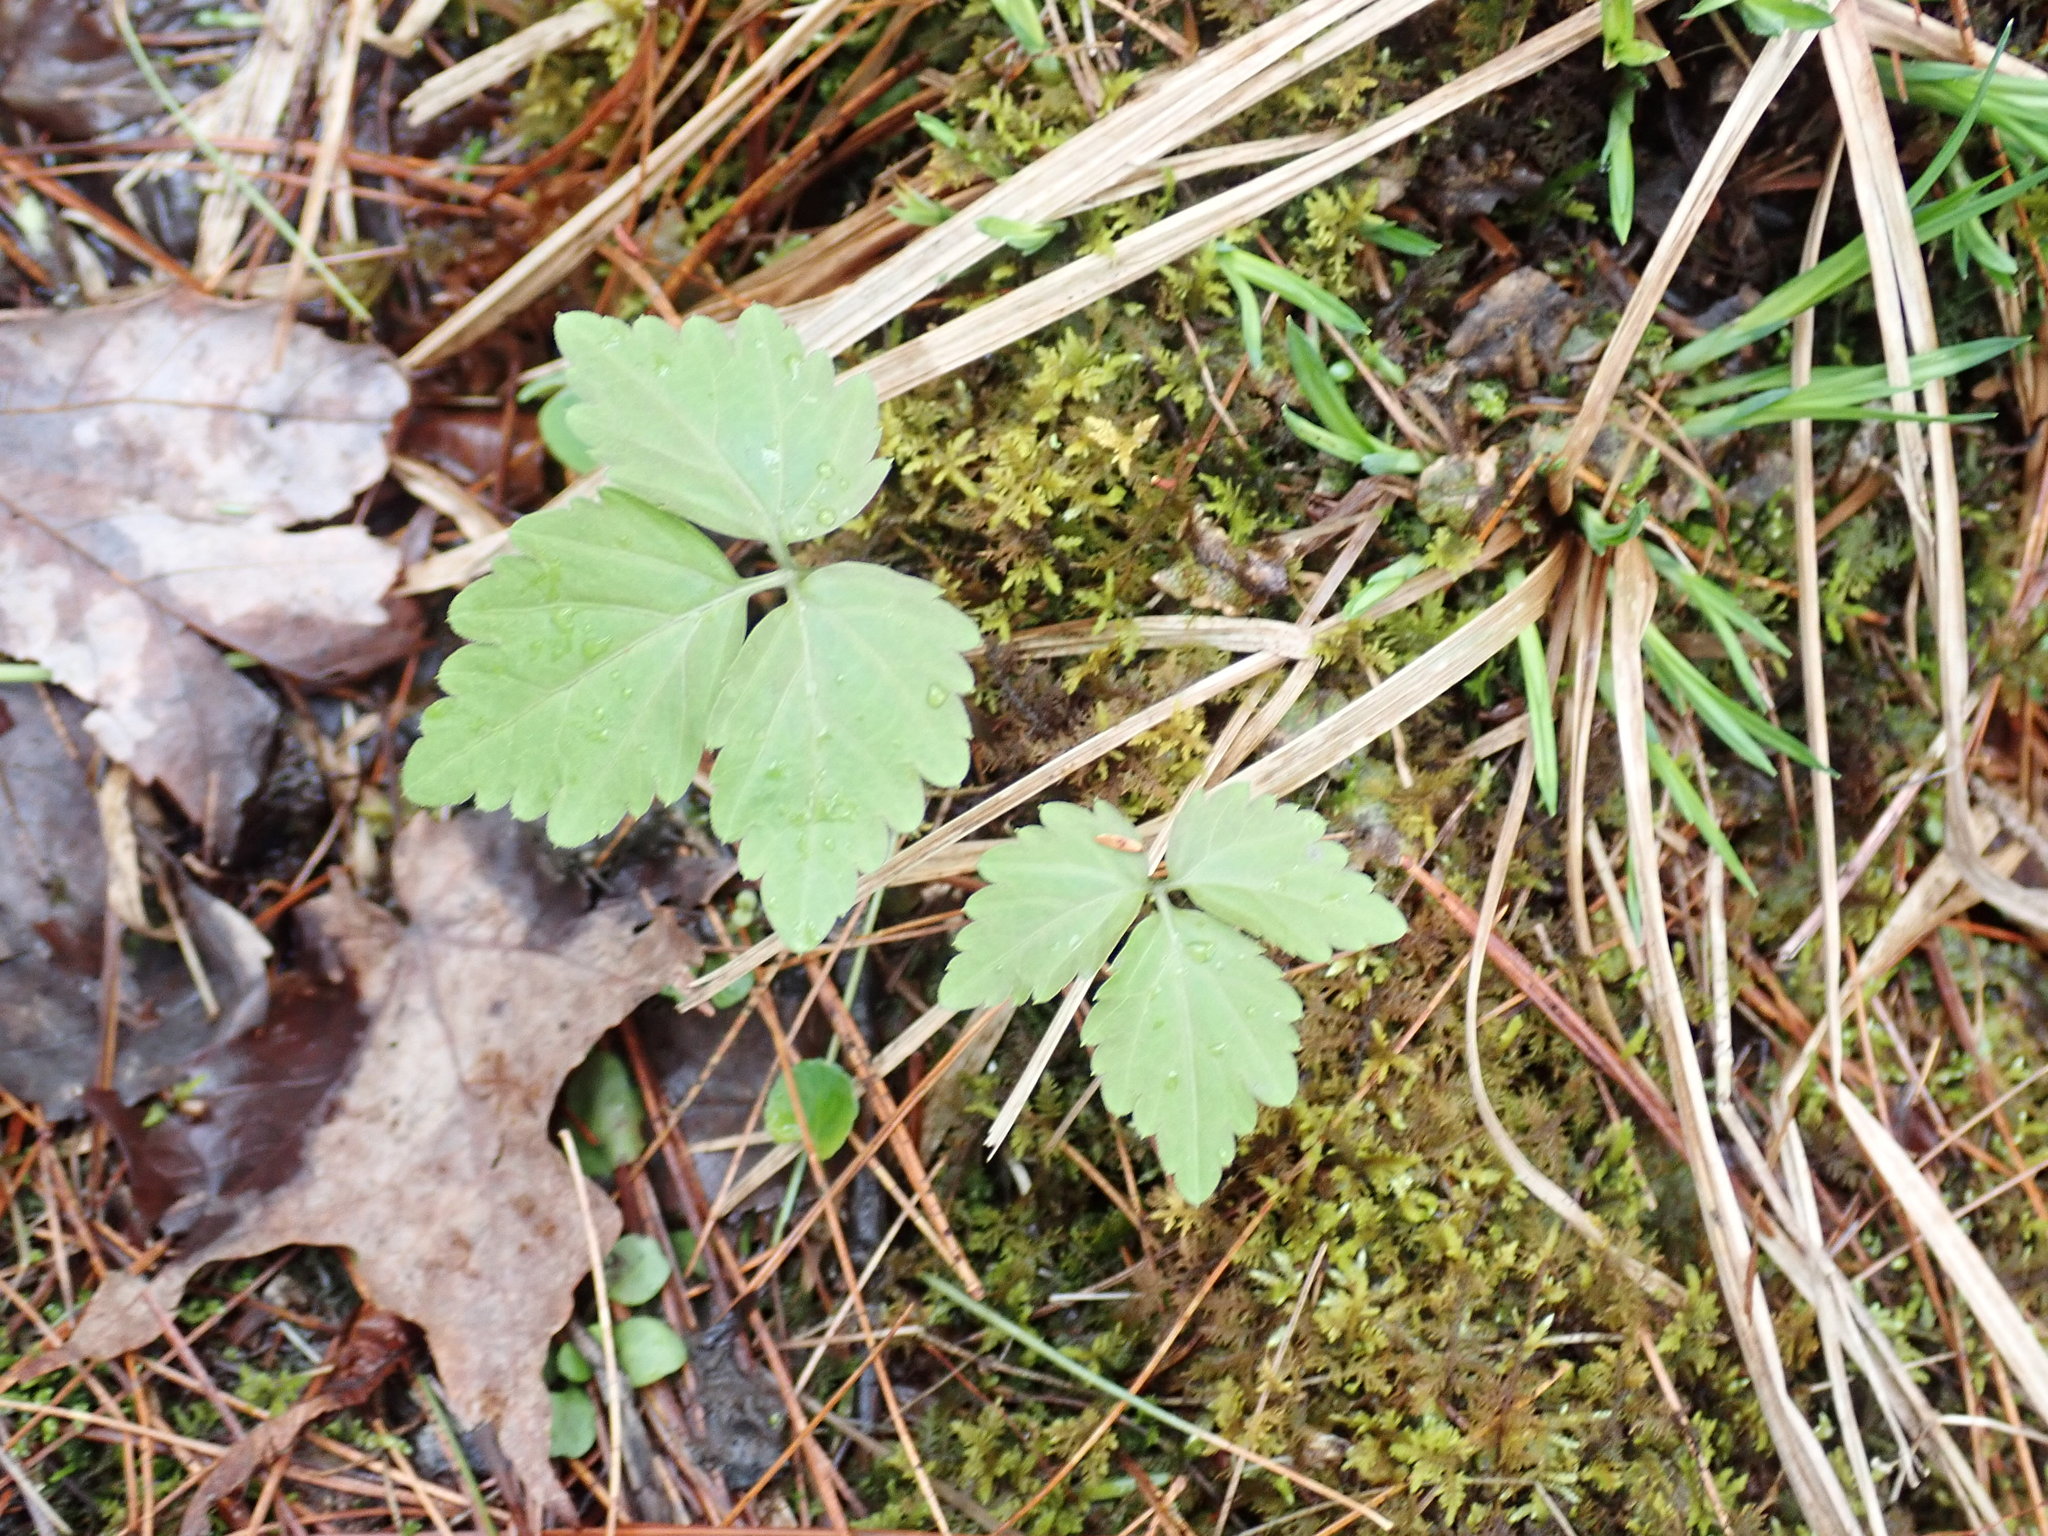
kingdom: Plantae
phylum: Tracheophyta
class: Magnoliopsida
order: Brassicales
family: Brassicaceae
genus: Cardamine
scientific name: Cardamine diphylla
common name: Broad-leaved toothwort
